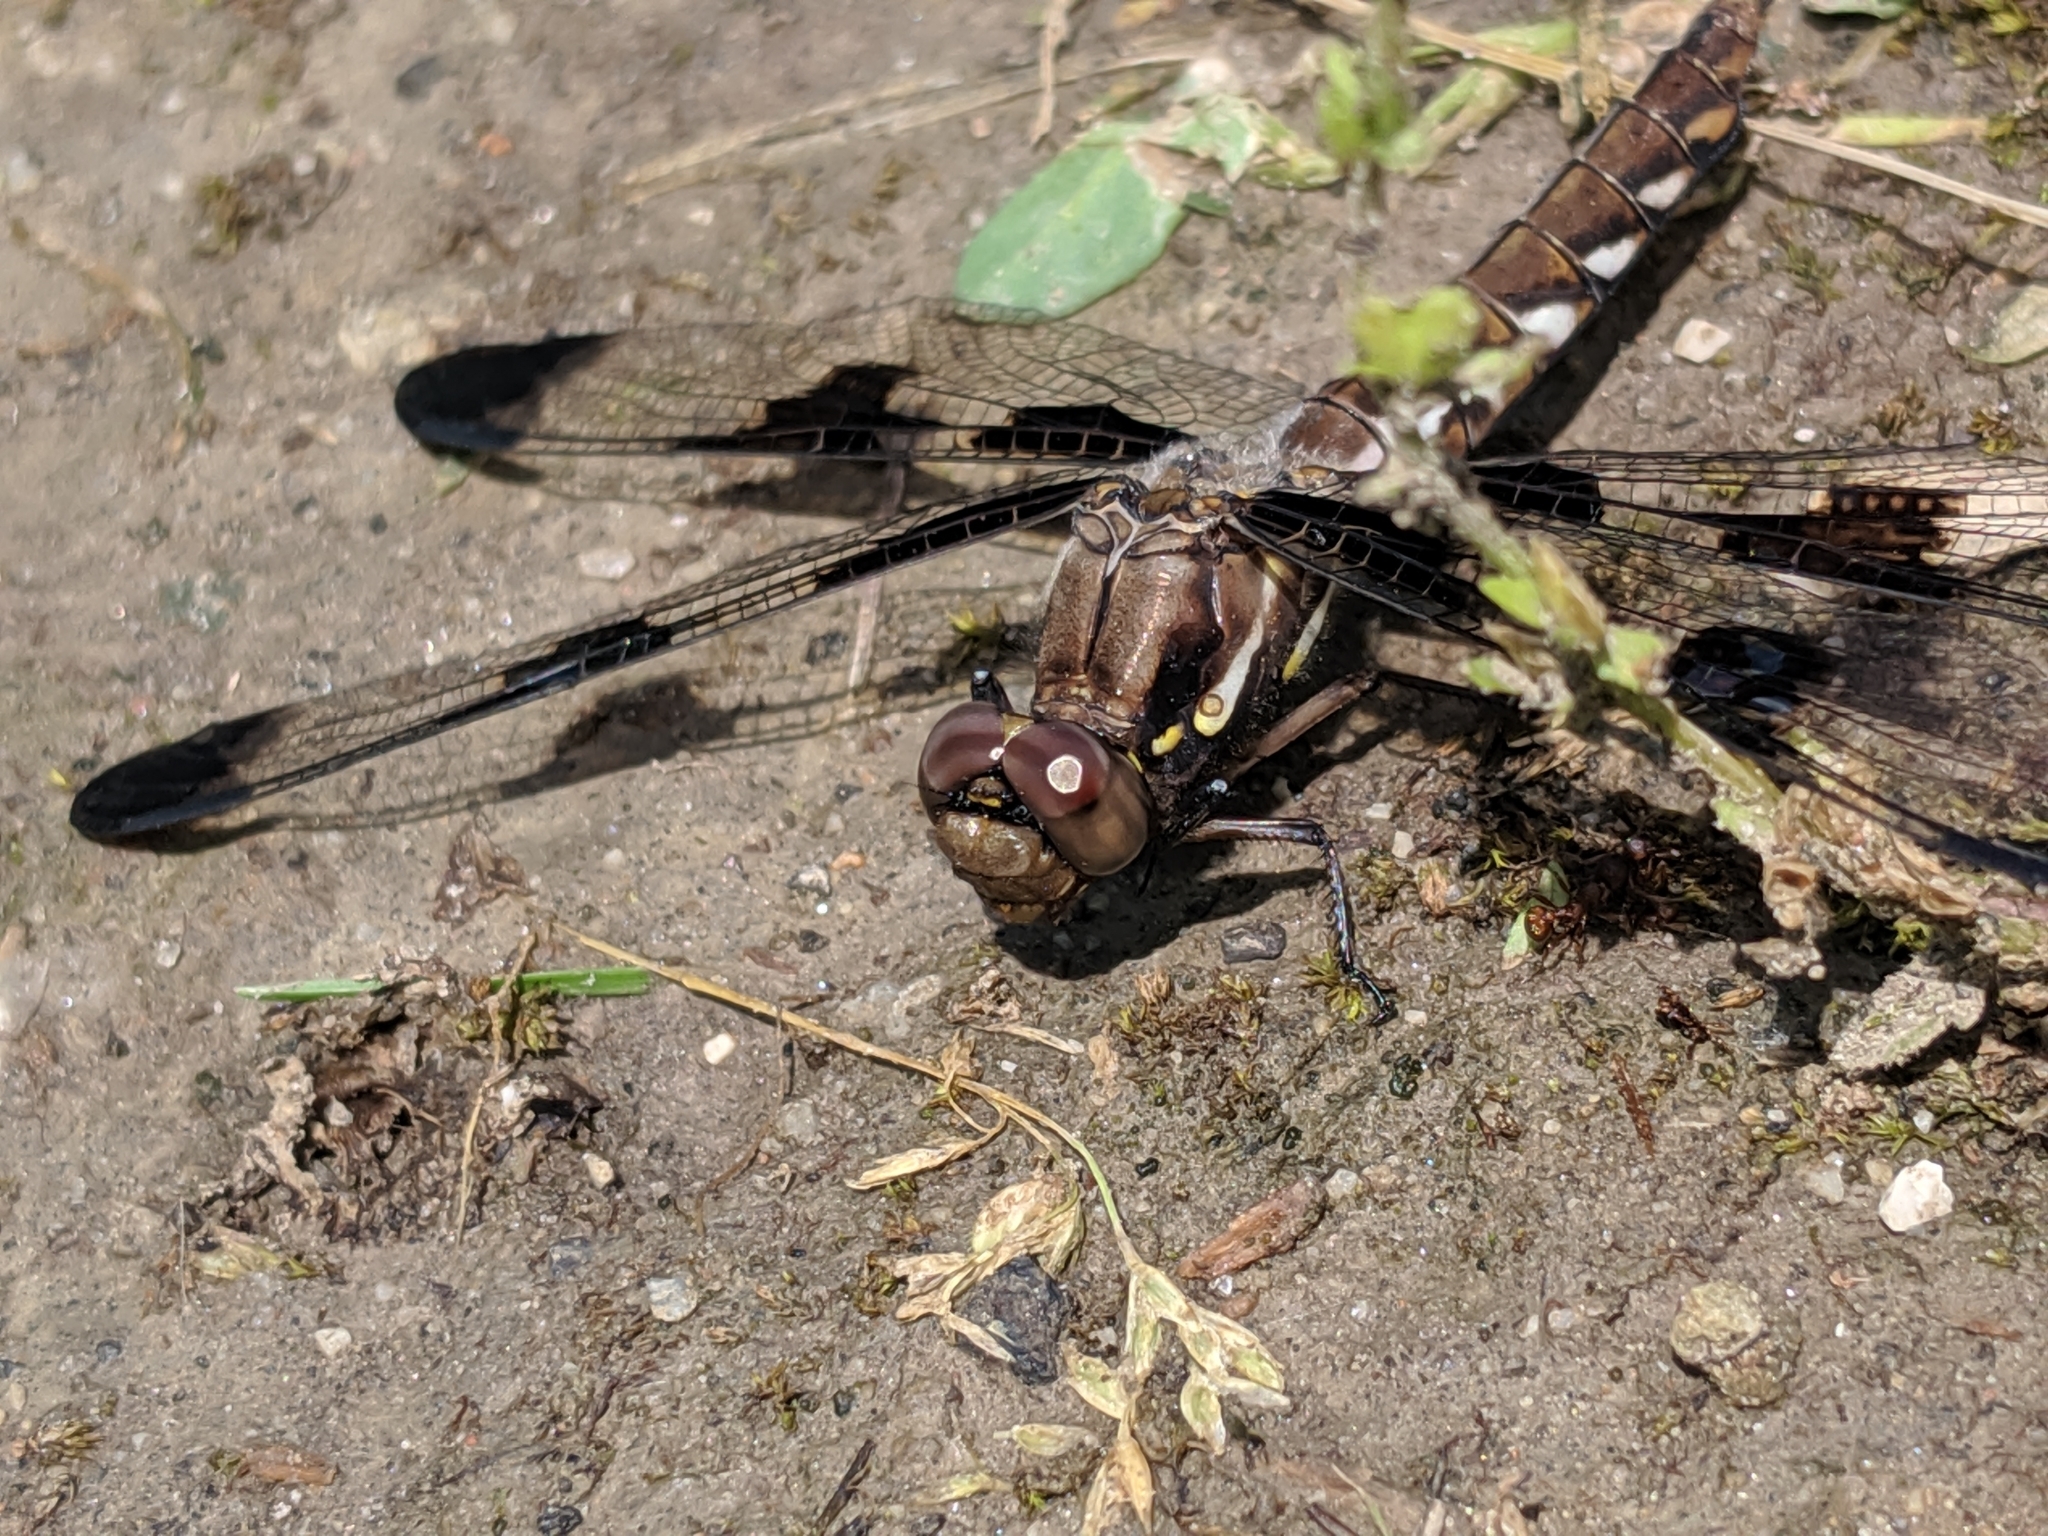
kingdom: Animalia
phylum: Arthropoda
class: Insecta
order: Odonata
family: Libellulidae
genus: Plathemis
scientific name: Plathemis lydia
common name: Common whitetail
